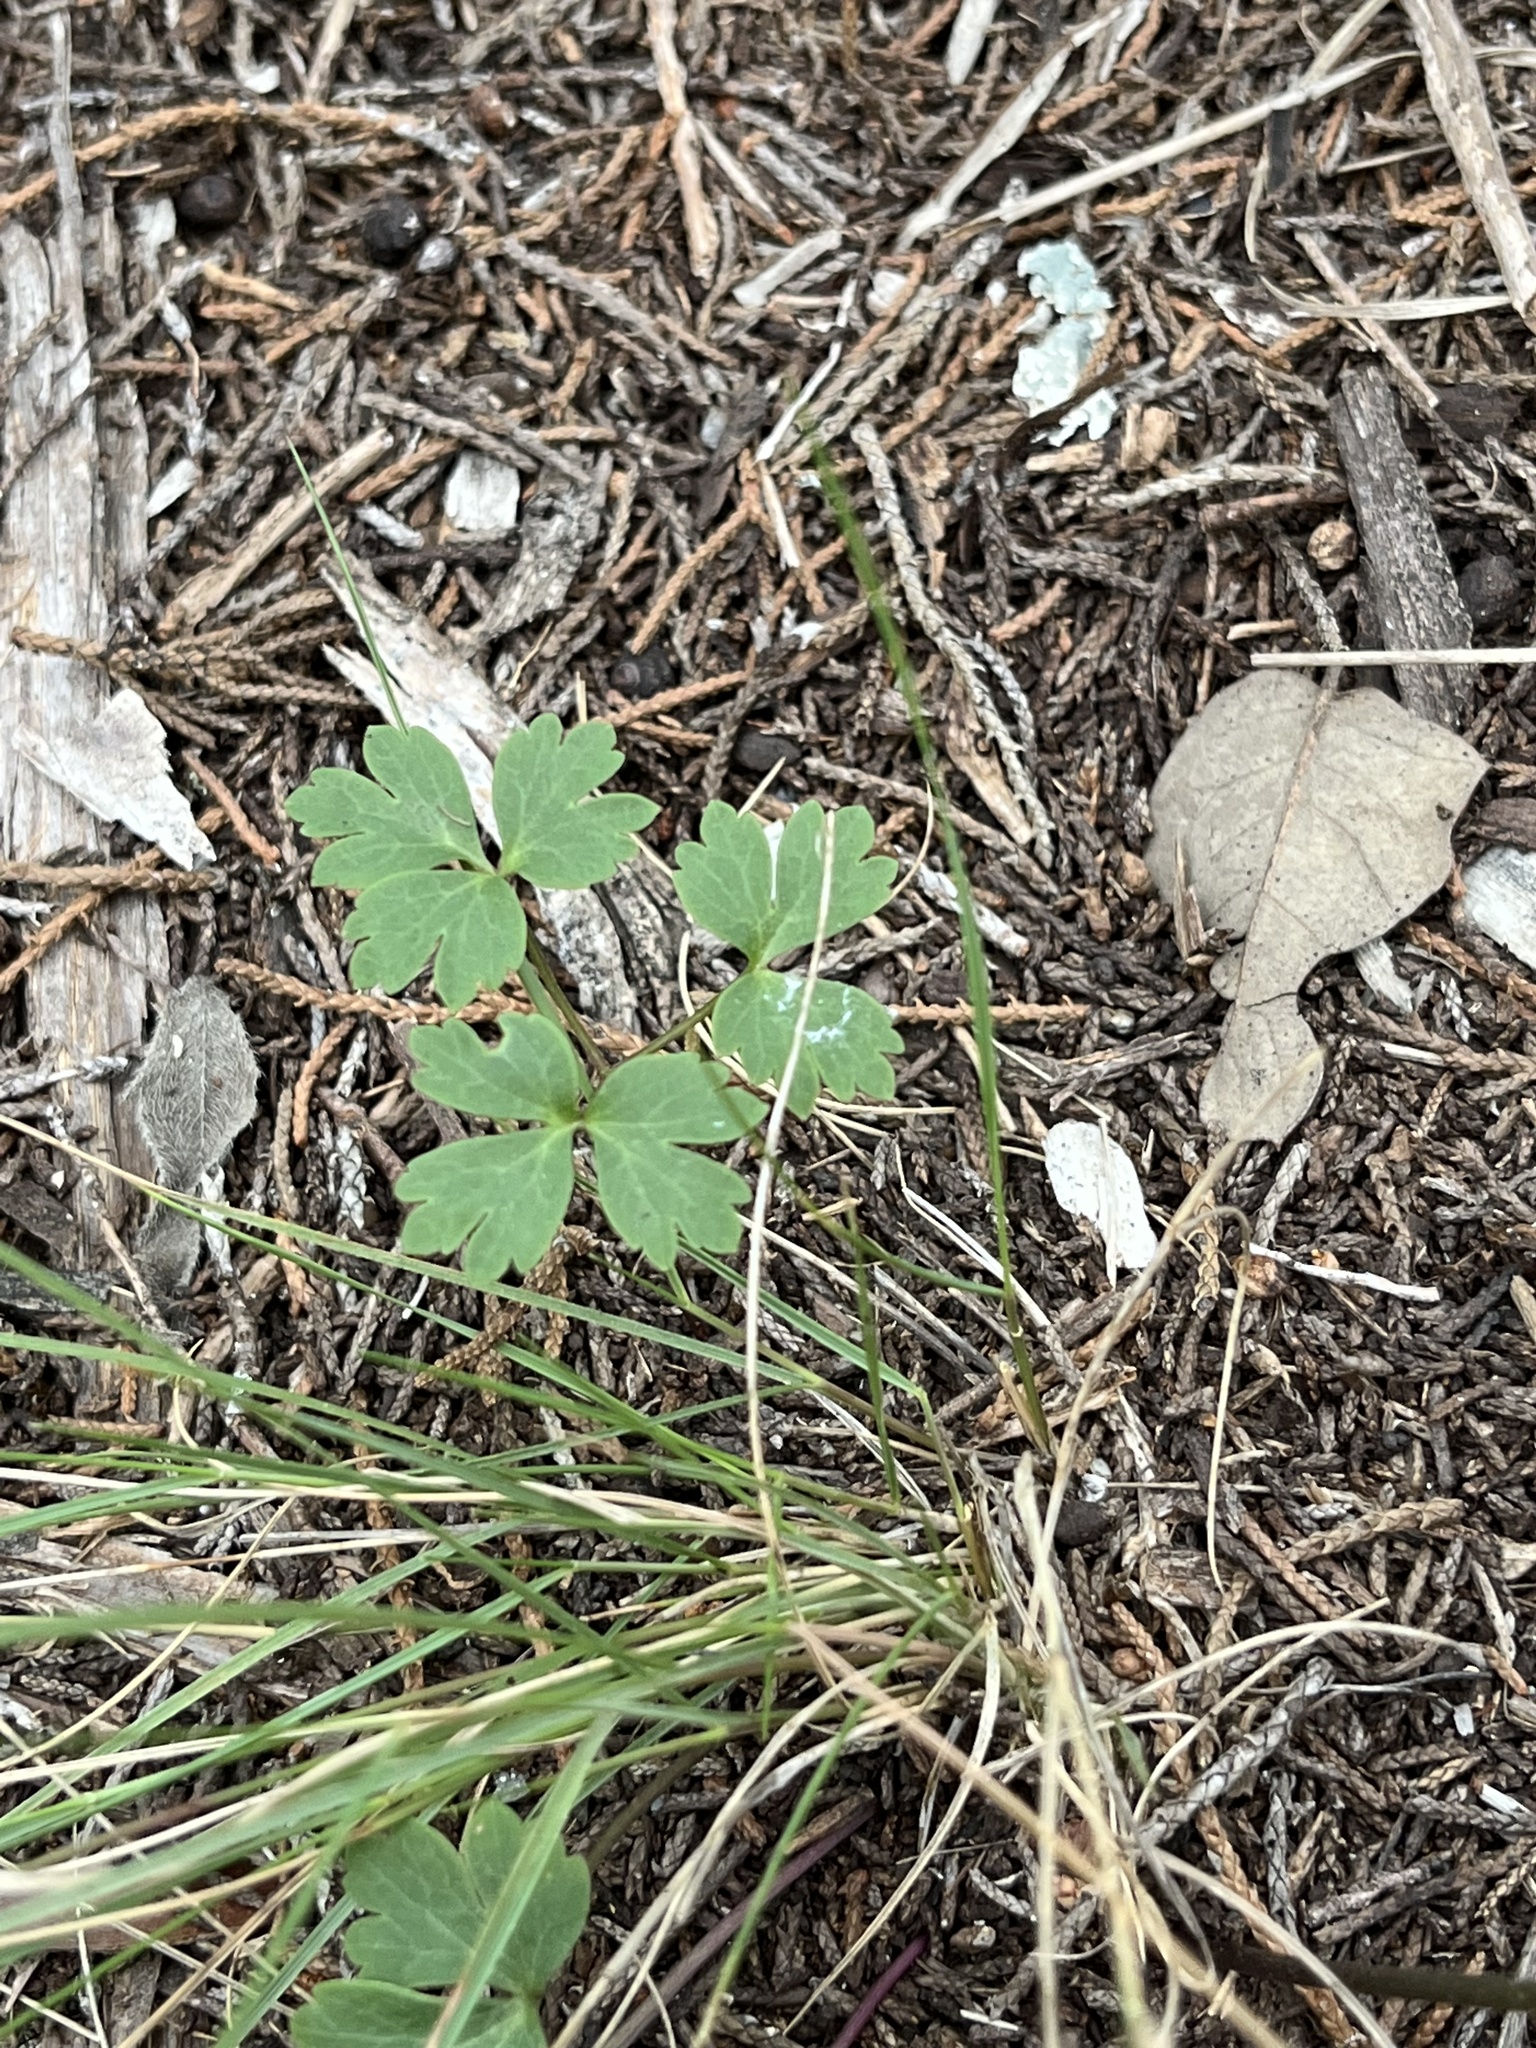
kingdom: Plantae
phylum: Tracheophyta
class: Magnoliopsida
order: Ranunculales
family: Ranunculaceae
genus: Anemone
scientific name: Anemone edwardsiana
